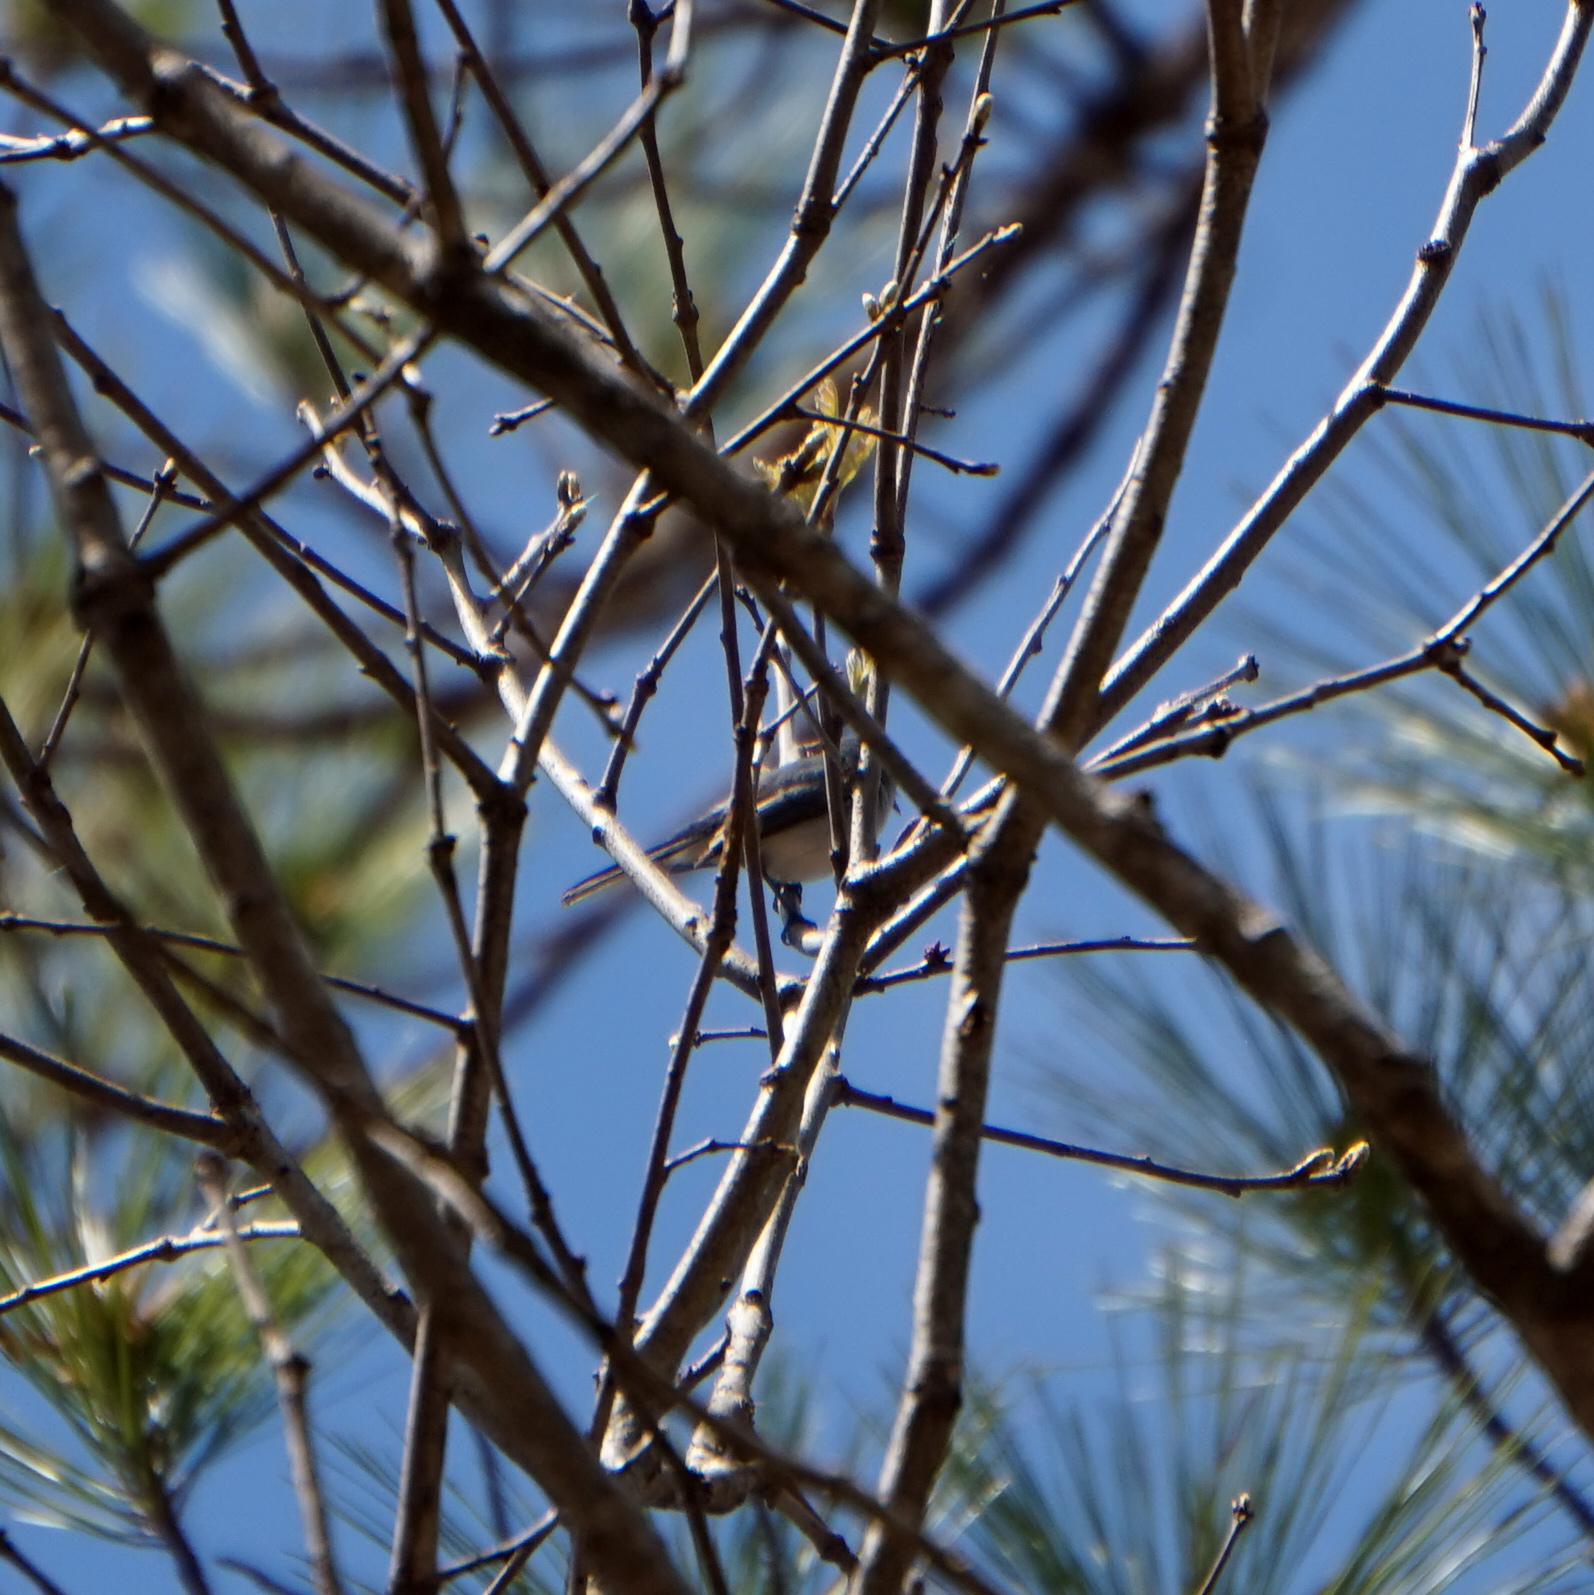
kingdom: Animalia
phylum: Chordata
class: Aves
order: Passeriformes
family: Polioptilidae
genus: Polioptila
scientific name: Polioptila caerulea
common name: Blue-gray gnatcatcher
